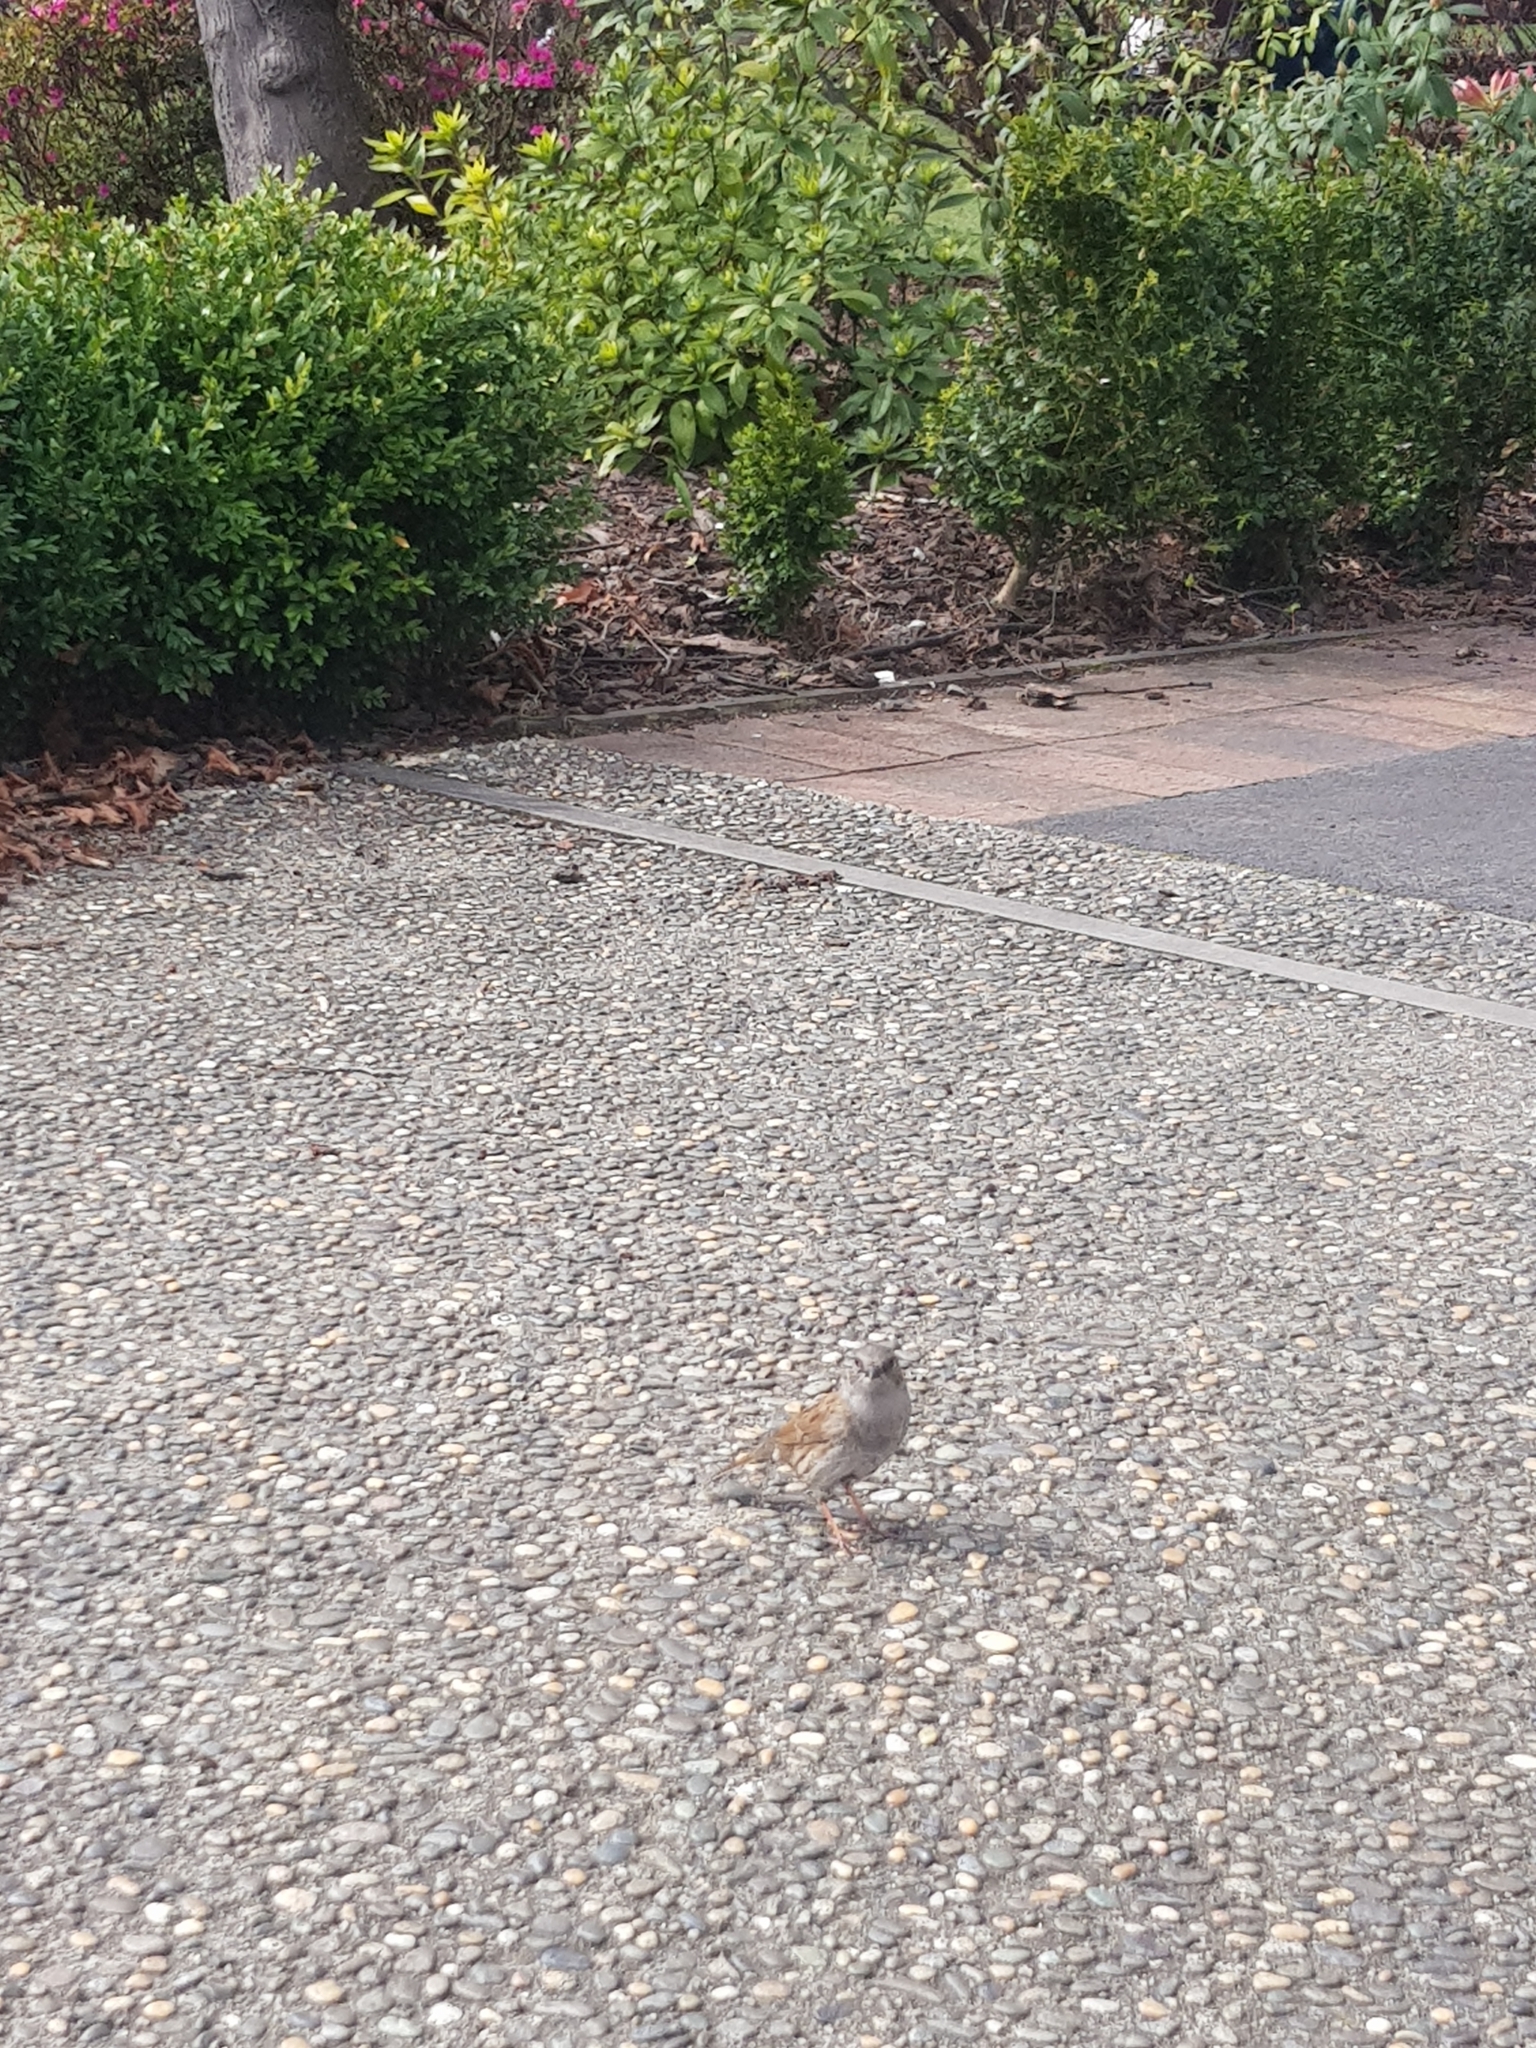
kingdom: Animalia
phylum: Chordata
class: Aves
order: Passeriformes
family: Prunellidae
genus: Prunella
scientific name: Prunella modularis
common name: Dunnock
